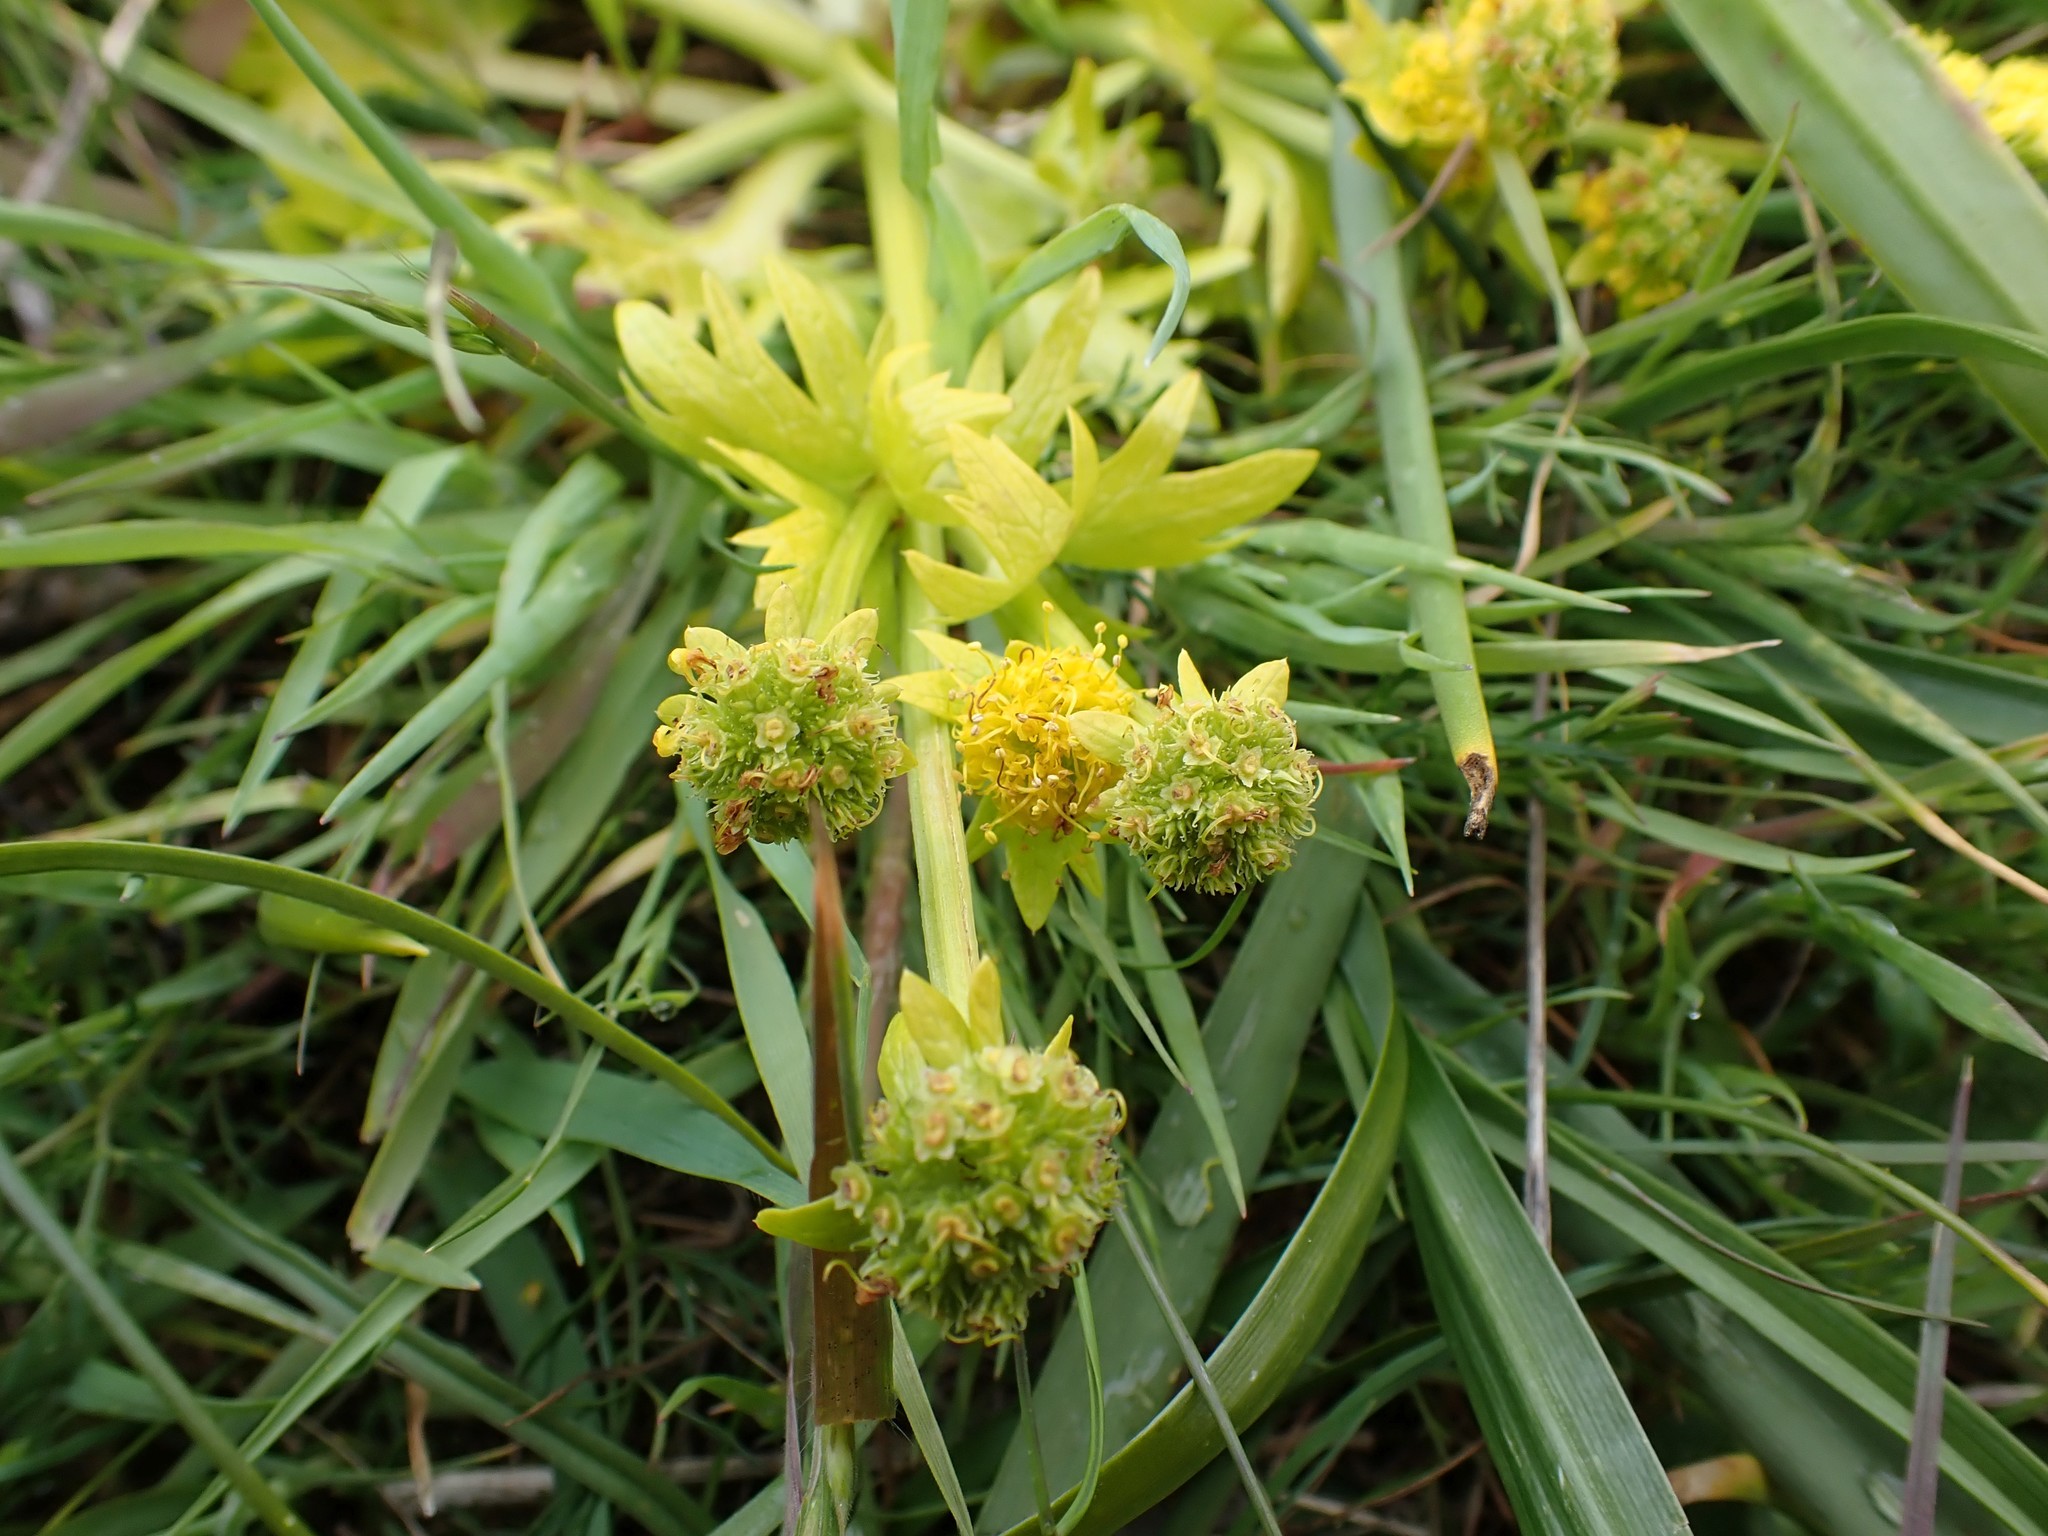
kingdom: Plantae
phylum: Tracheophyta
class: Magnoliopsida
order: Apiales
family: Apiaceae
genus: Sanicula
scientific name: Sanicula arctopoides
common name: Footsteps-of-spring
